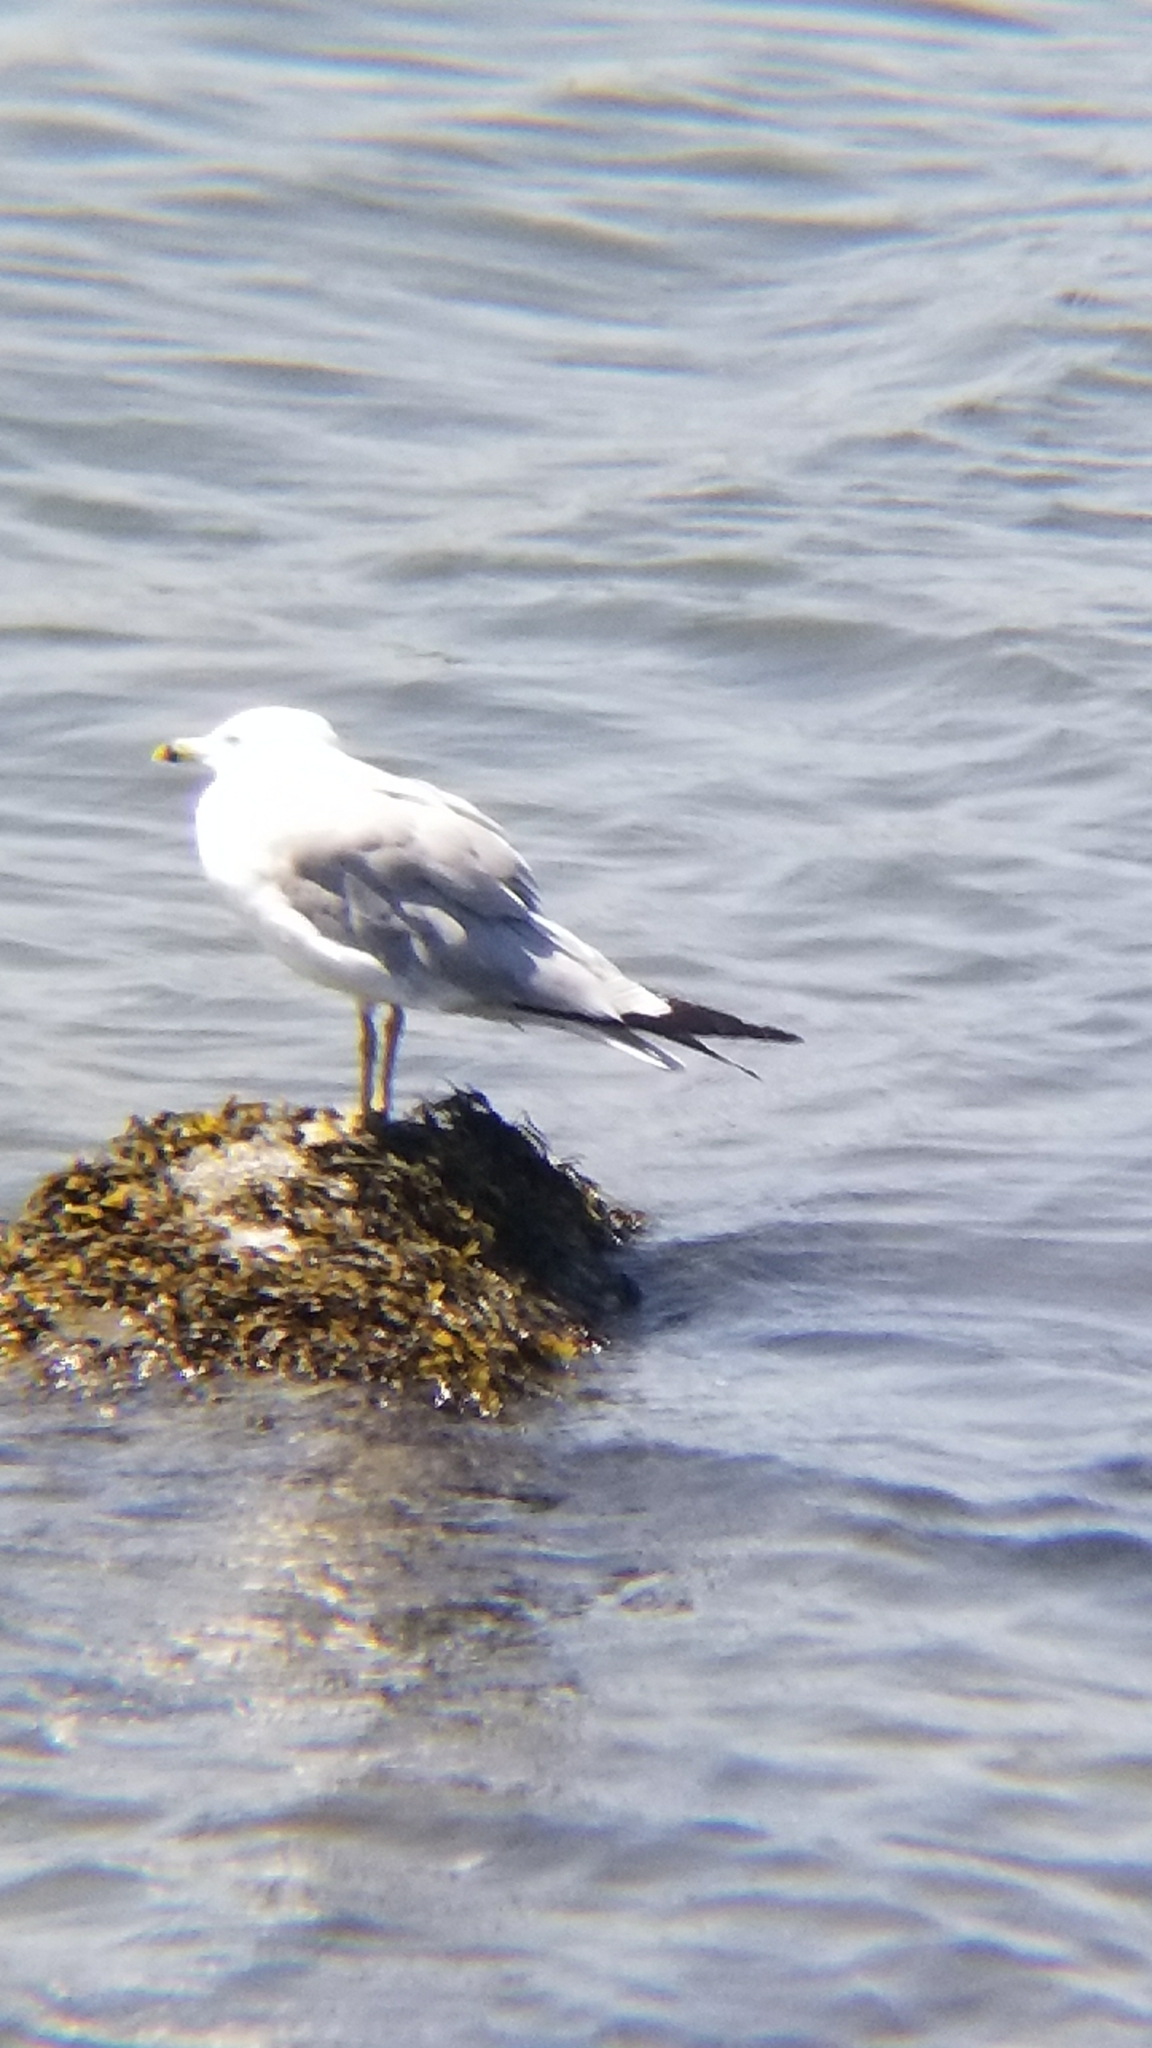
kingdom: Animalia
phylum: Chordata
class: Aves
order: Charadriiformes
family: Laridae
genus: Larus
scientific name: Larus delawarensis
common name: Ring-billed gull
